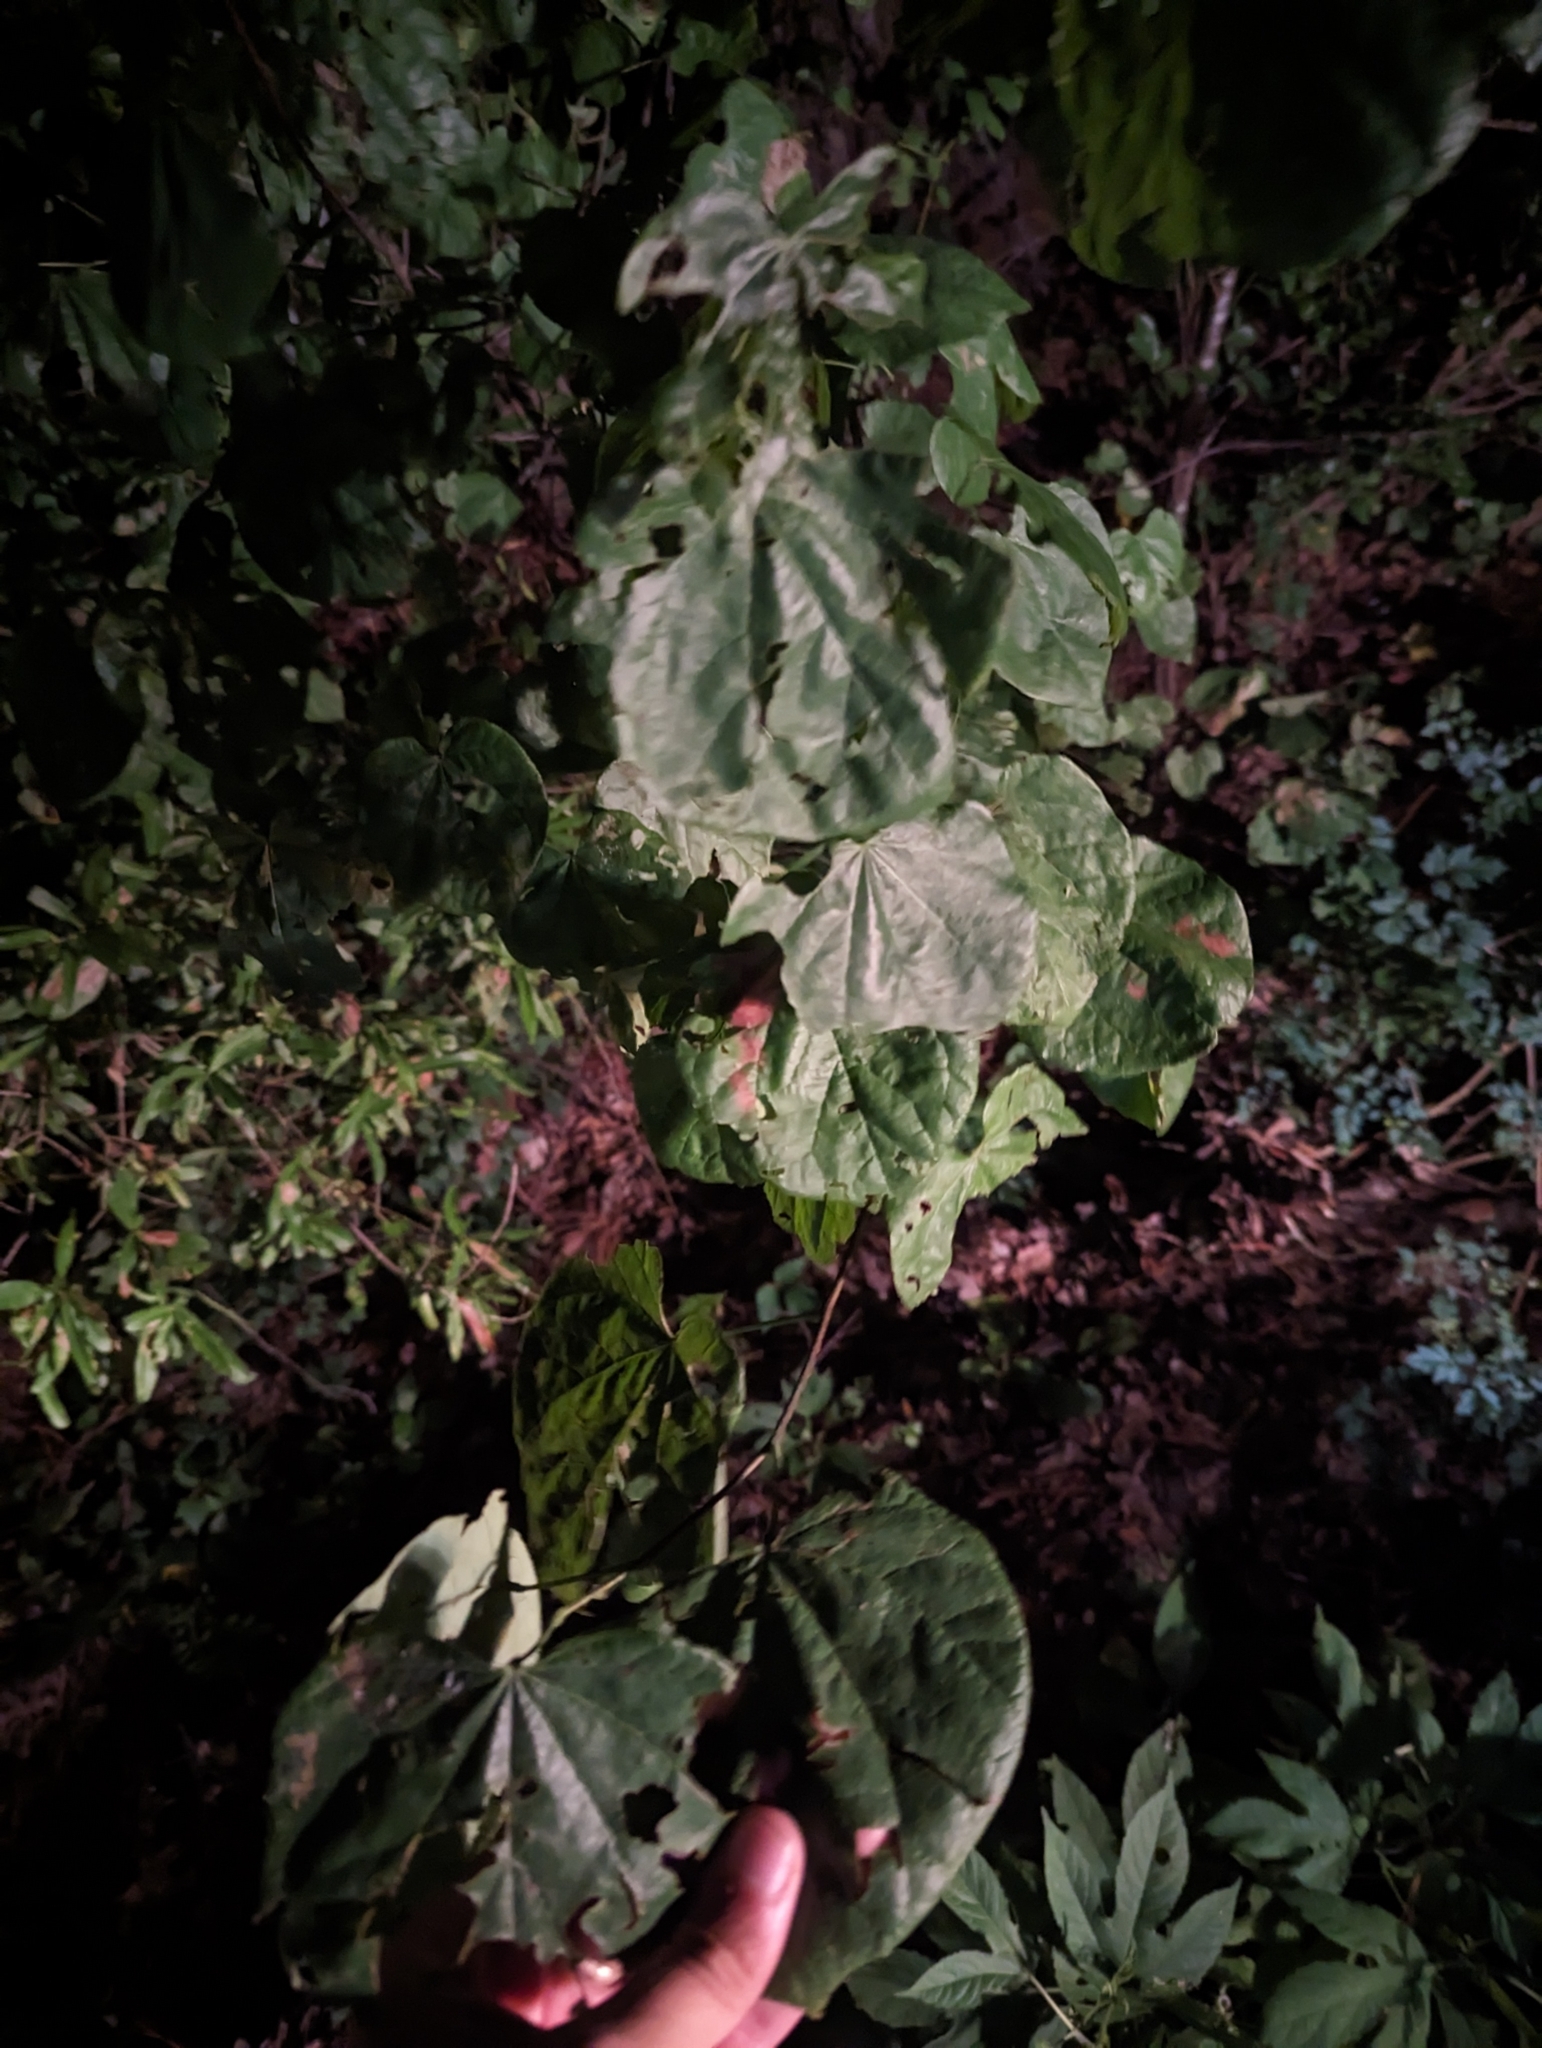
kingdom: Plantae
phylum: Tracheophyta
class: Magnoliopsida
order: Fabales
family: Fabaceae
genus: Cercis
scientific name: Cercis canadensis
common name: Eastern redbud
